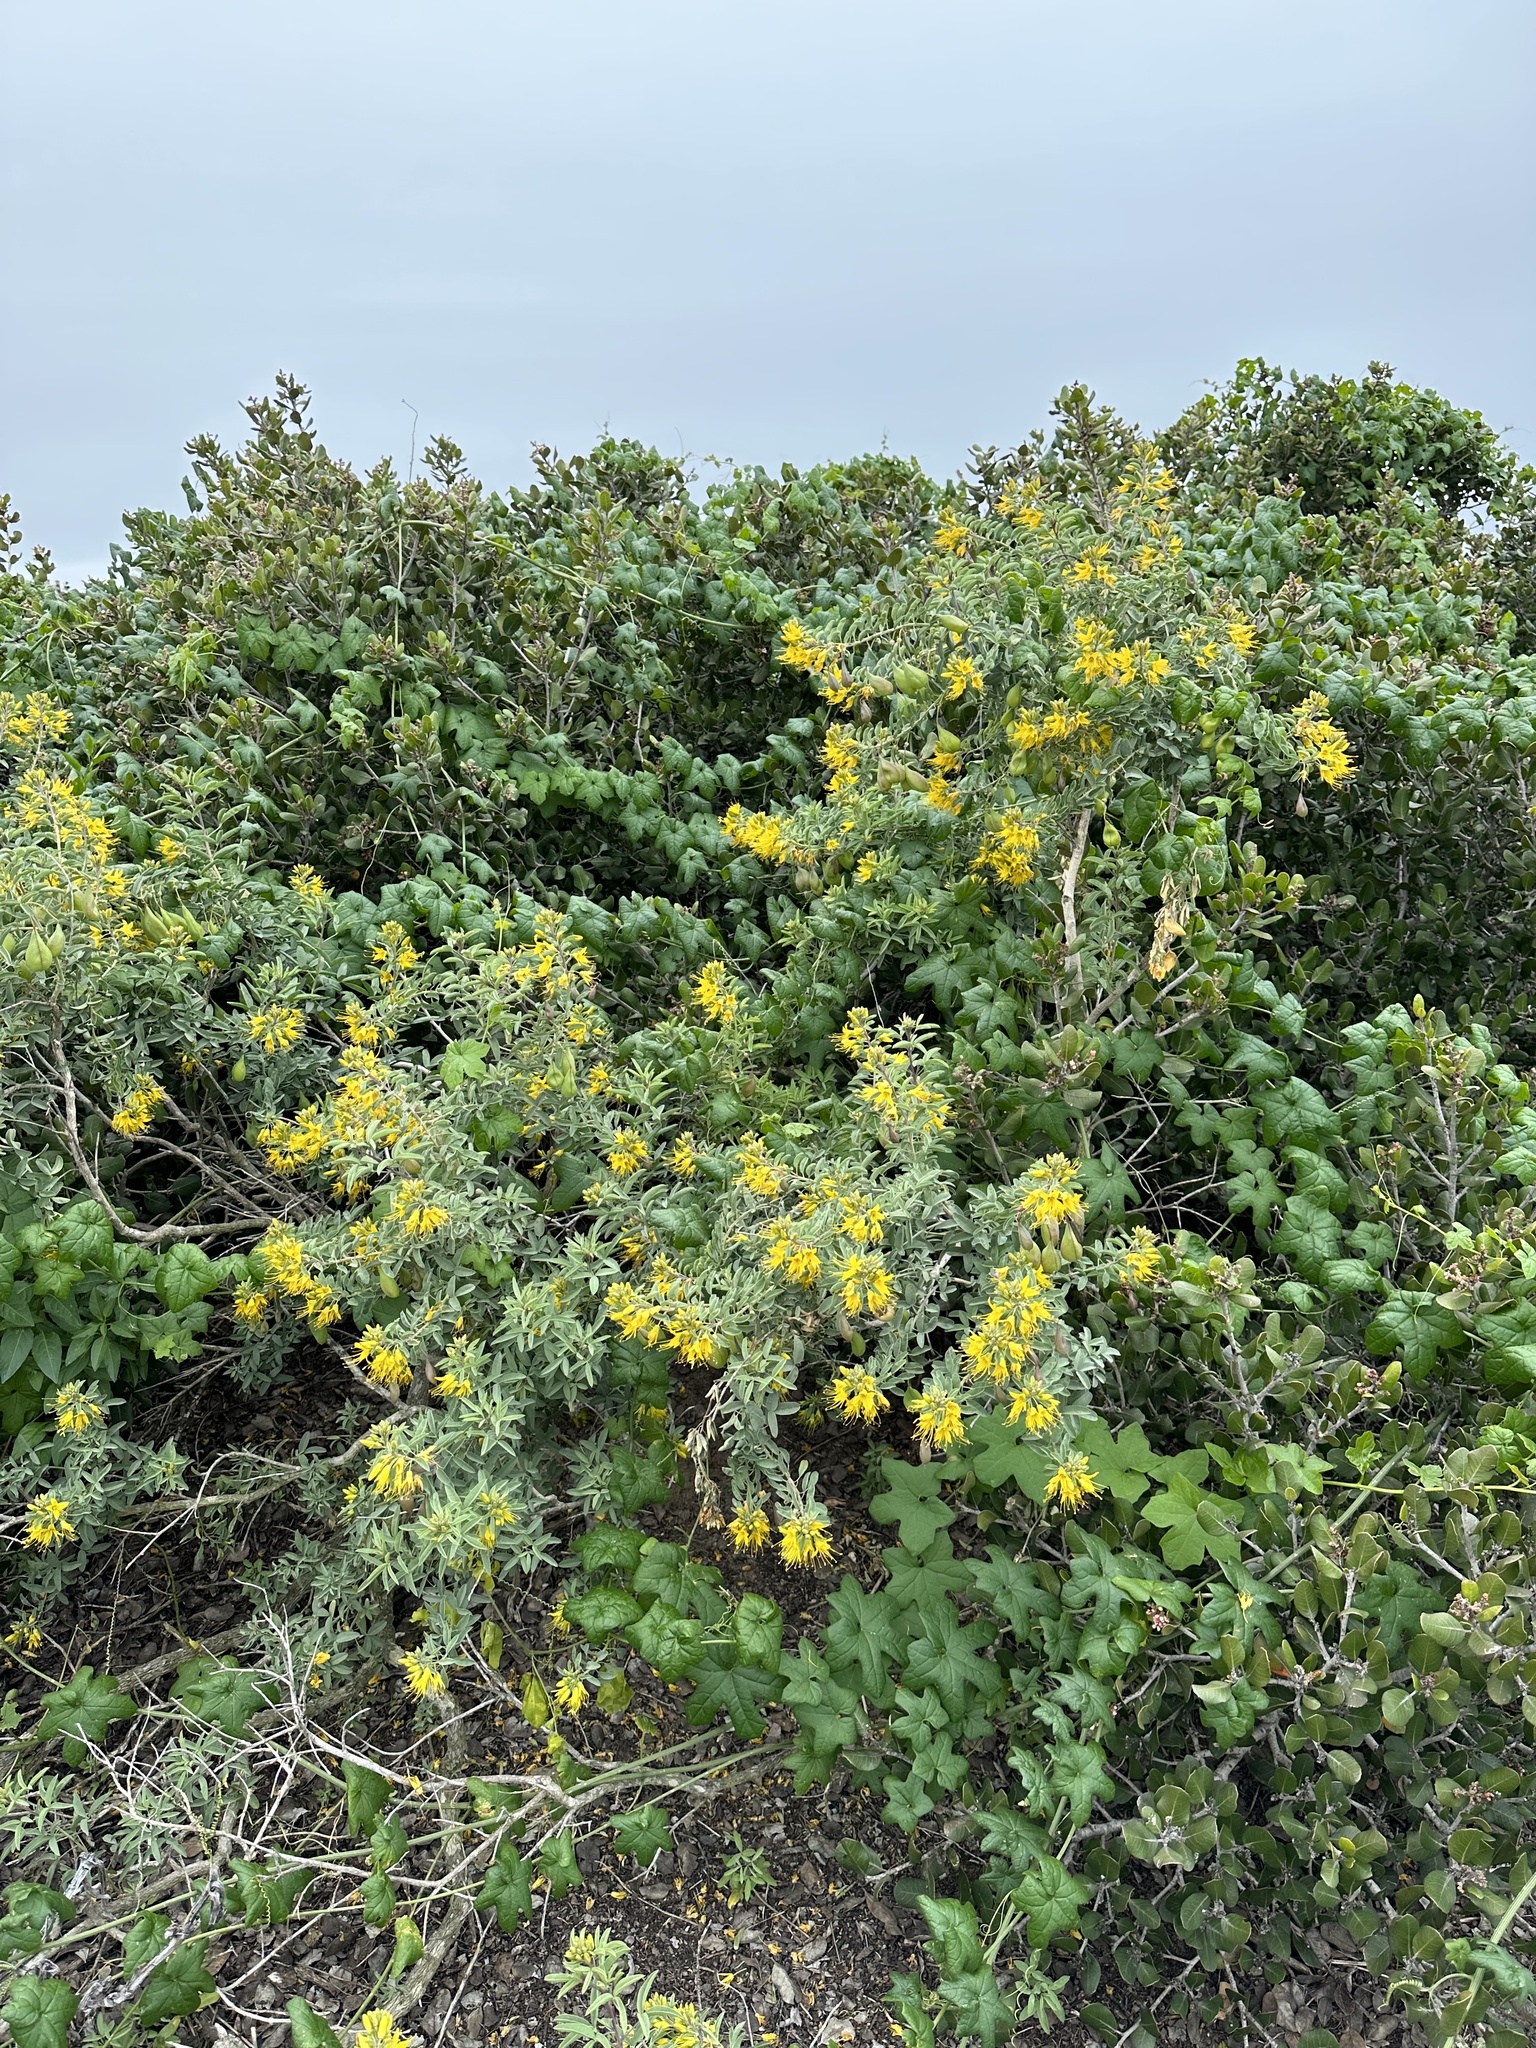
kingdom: Plantae
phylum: Tracheophyta
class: Magnoliopsida
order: Brassicales
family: Cleomaceae
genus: Cleomella
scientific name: Cleomella arborea
